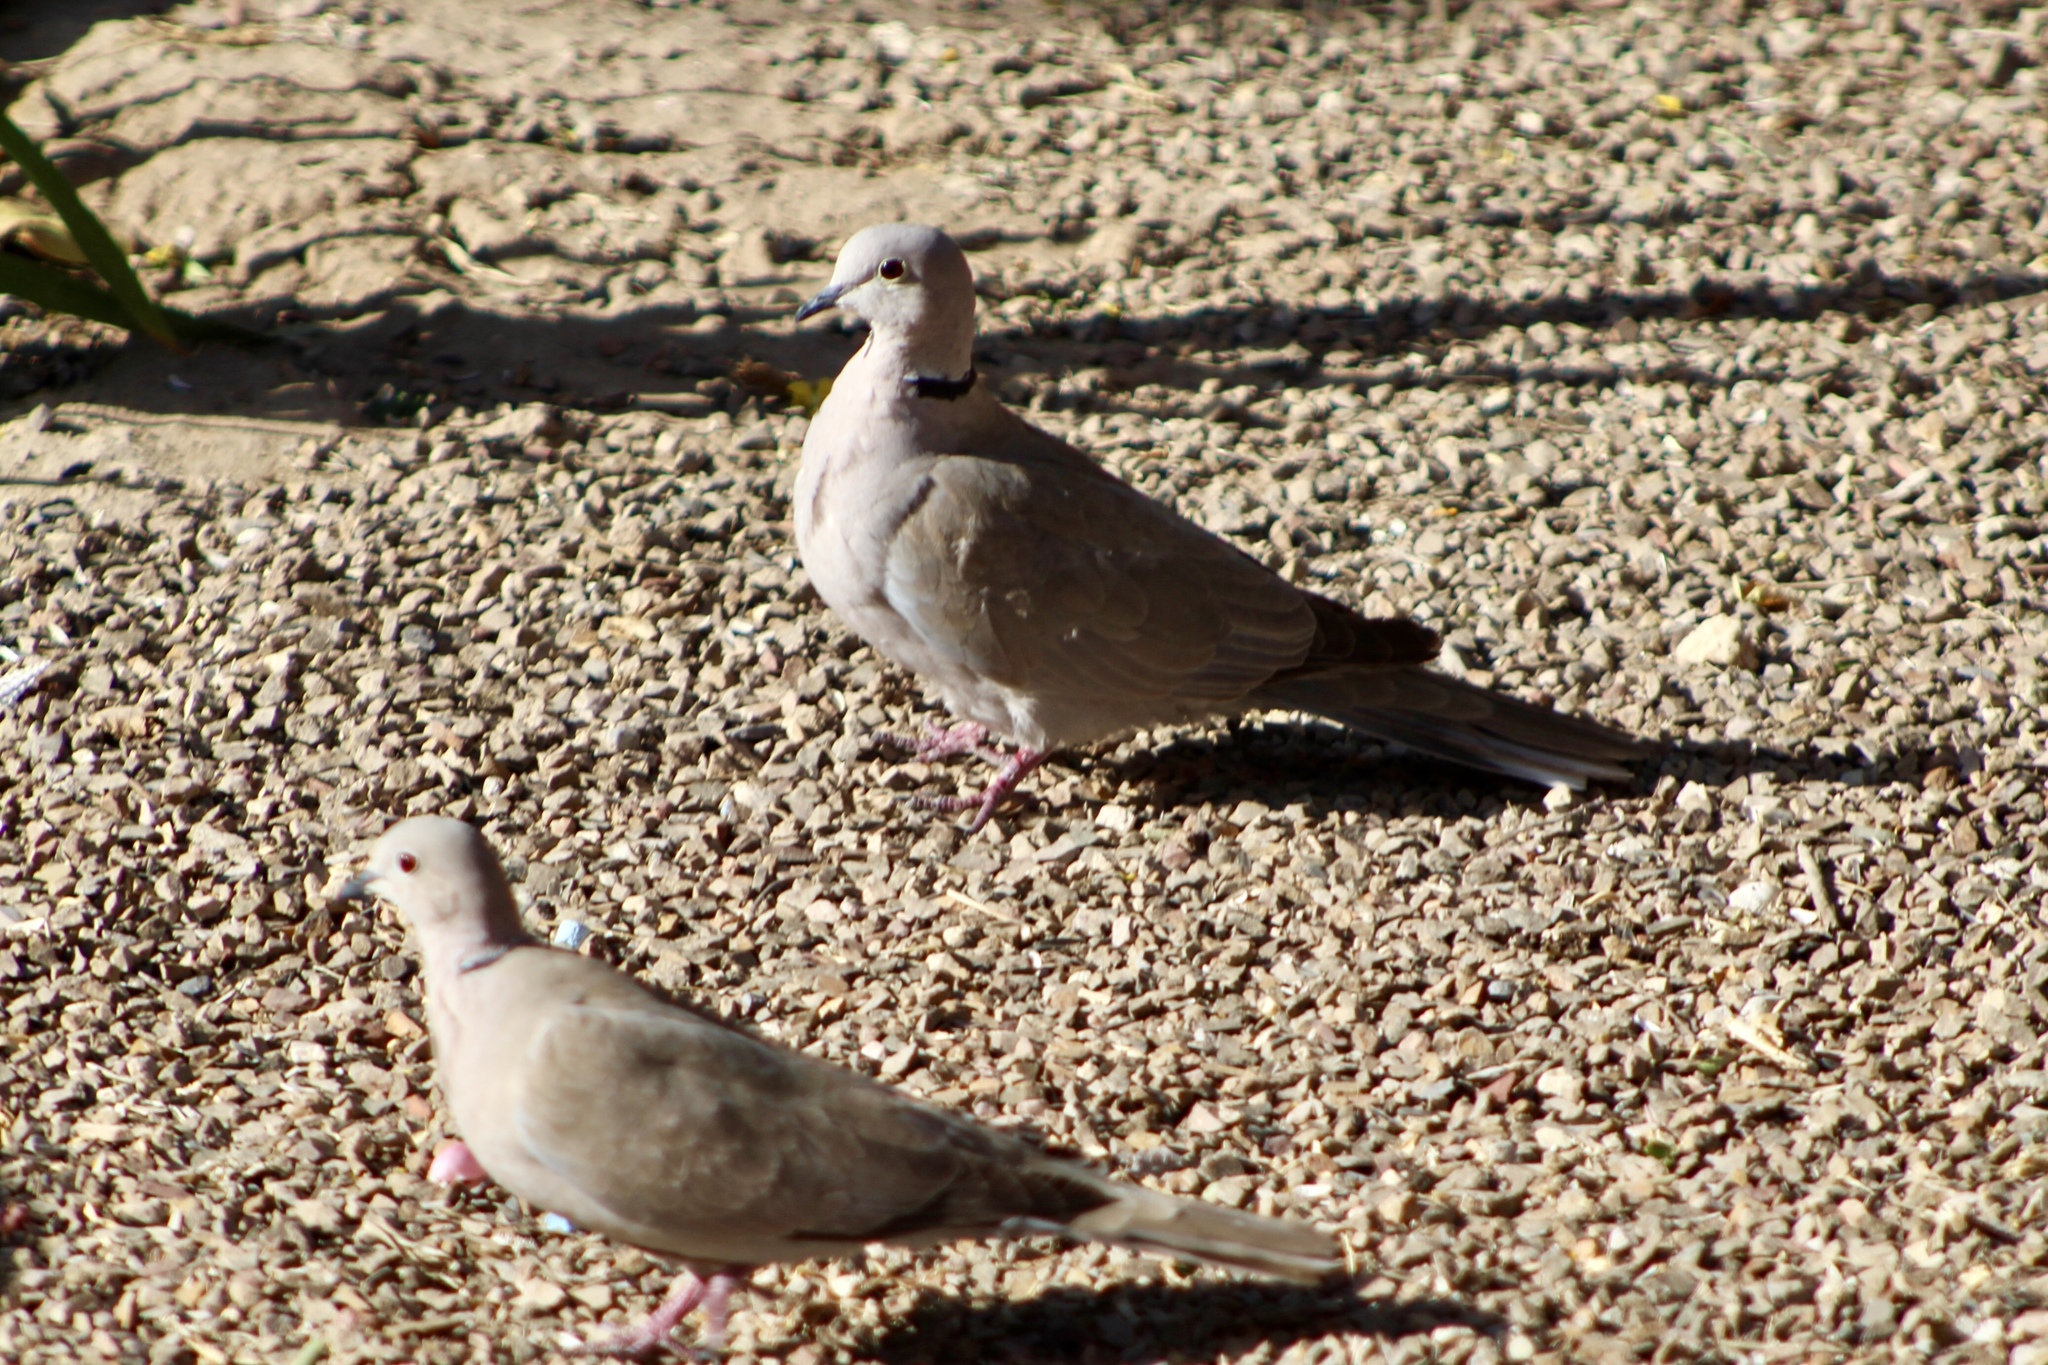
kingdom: Animalia
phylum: Chordata
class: Aves
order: Columbiformes
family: Columbidae
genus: Streptopelia
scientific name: Streptopelia decaocto
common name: Eurasian collared dove
